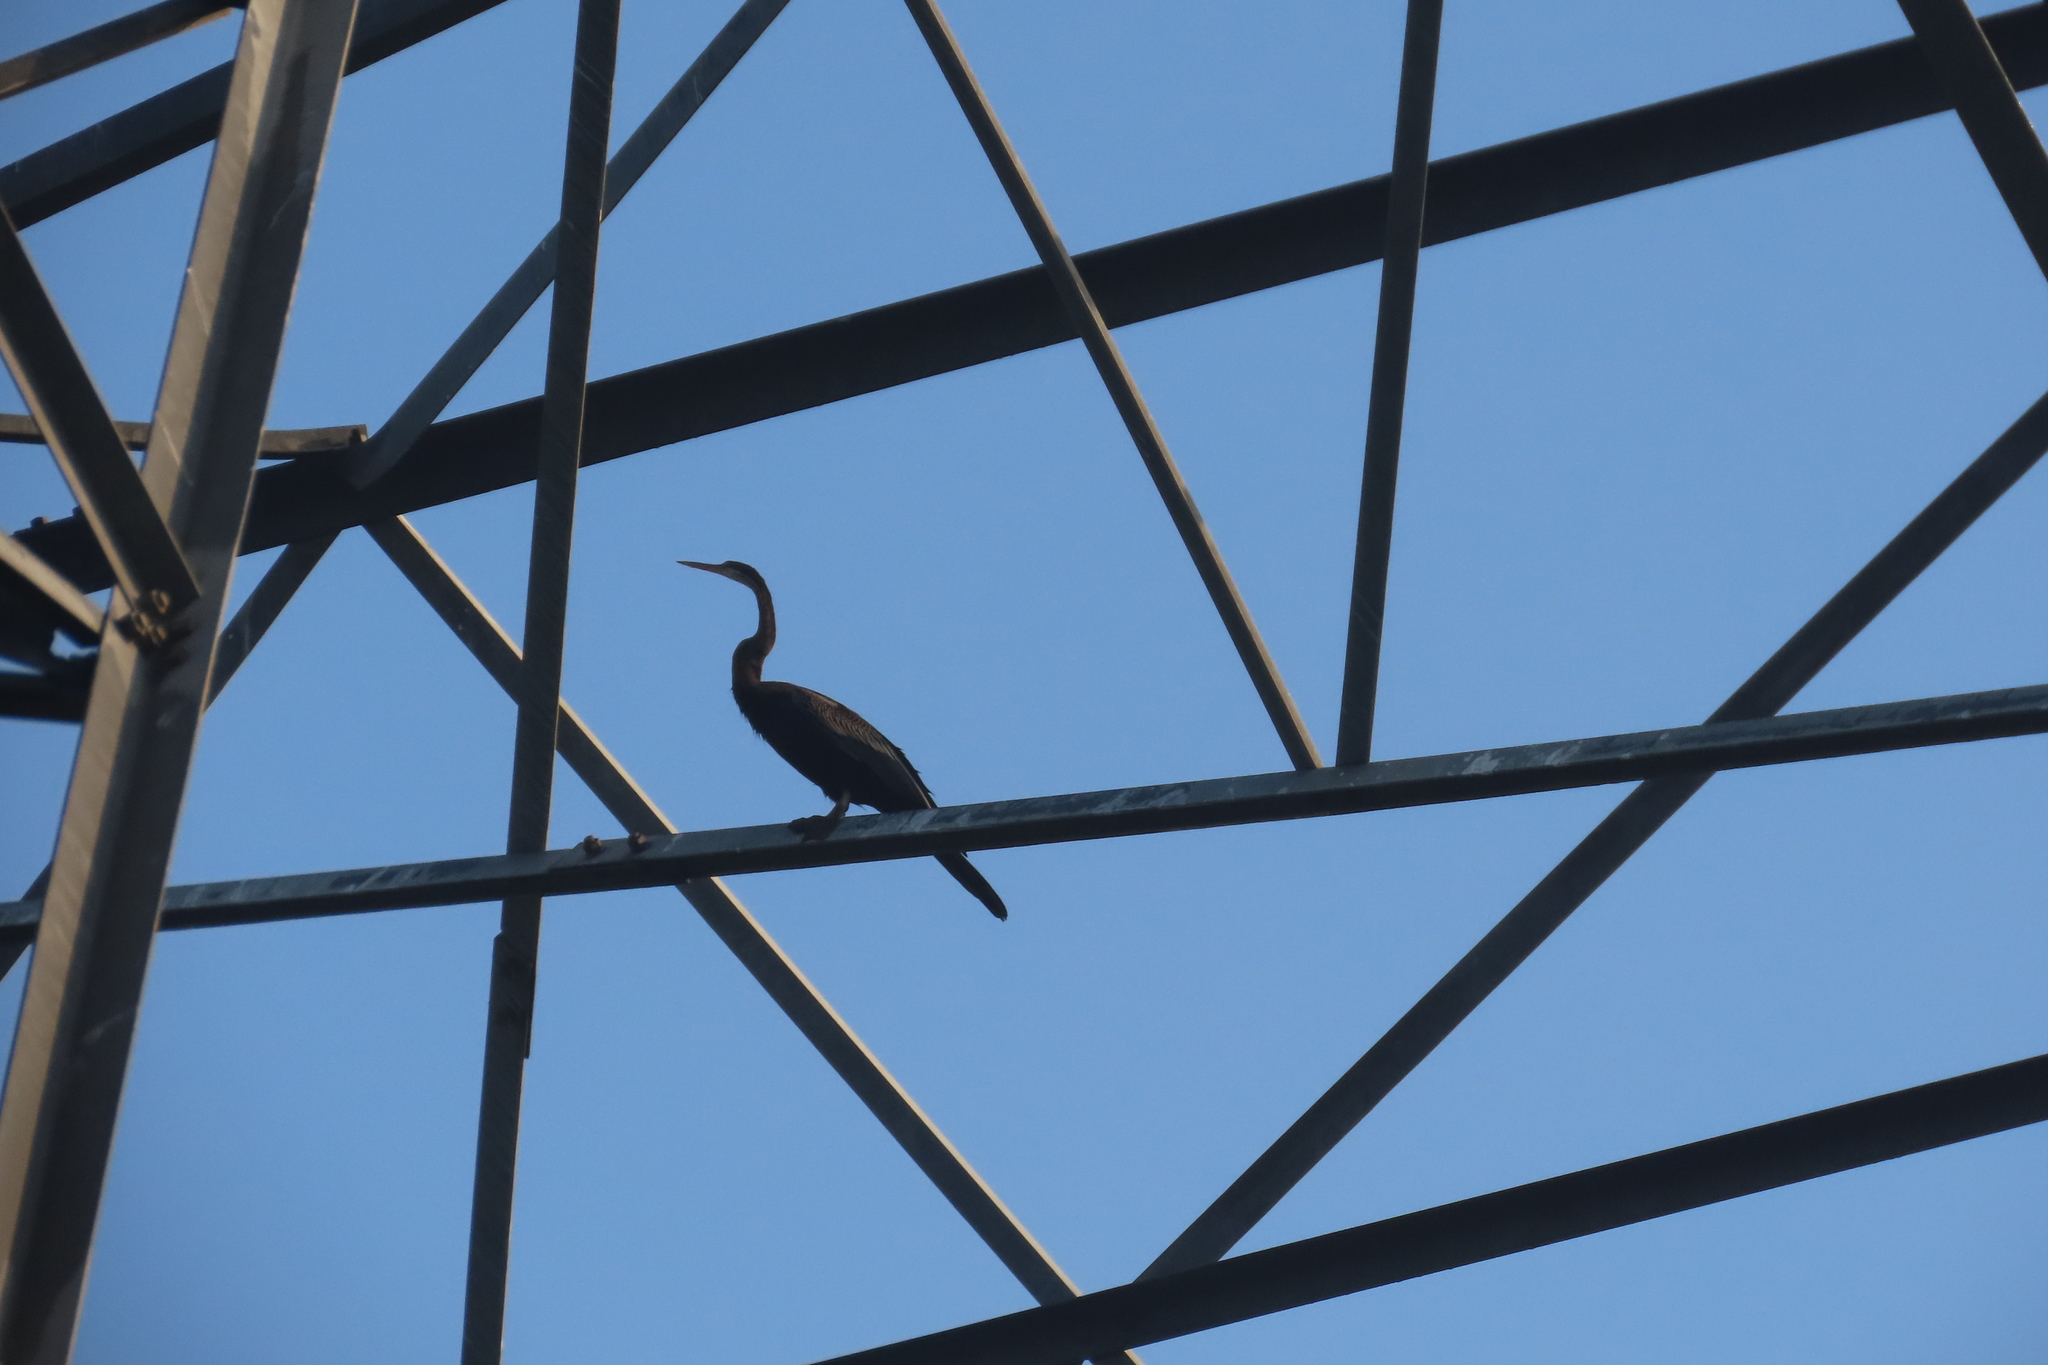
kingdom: Animalia
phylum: Chordata
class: Aves
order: Suliformes
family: Anhingidae
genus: Anhinga
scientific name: Anhinga melanogaster
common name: Oriental darter
